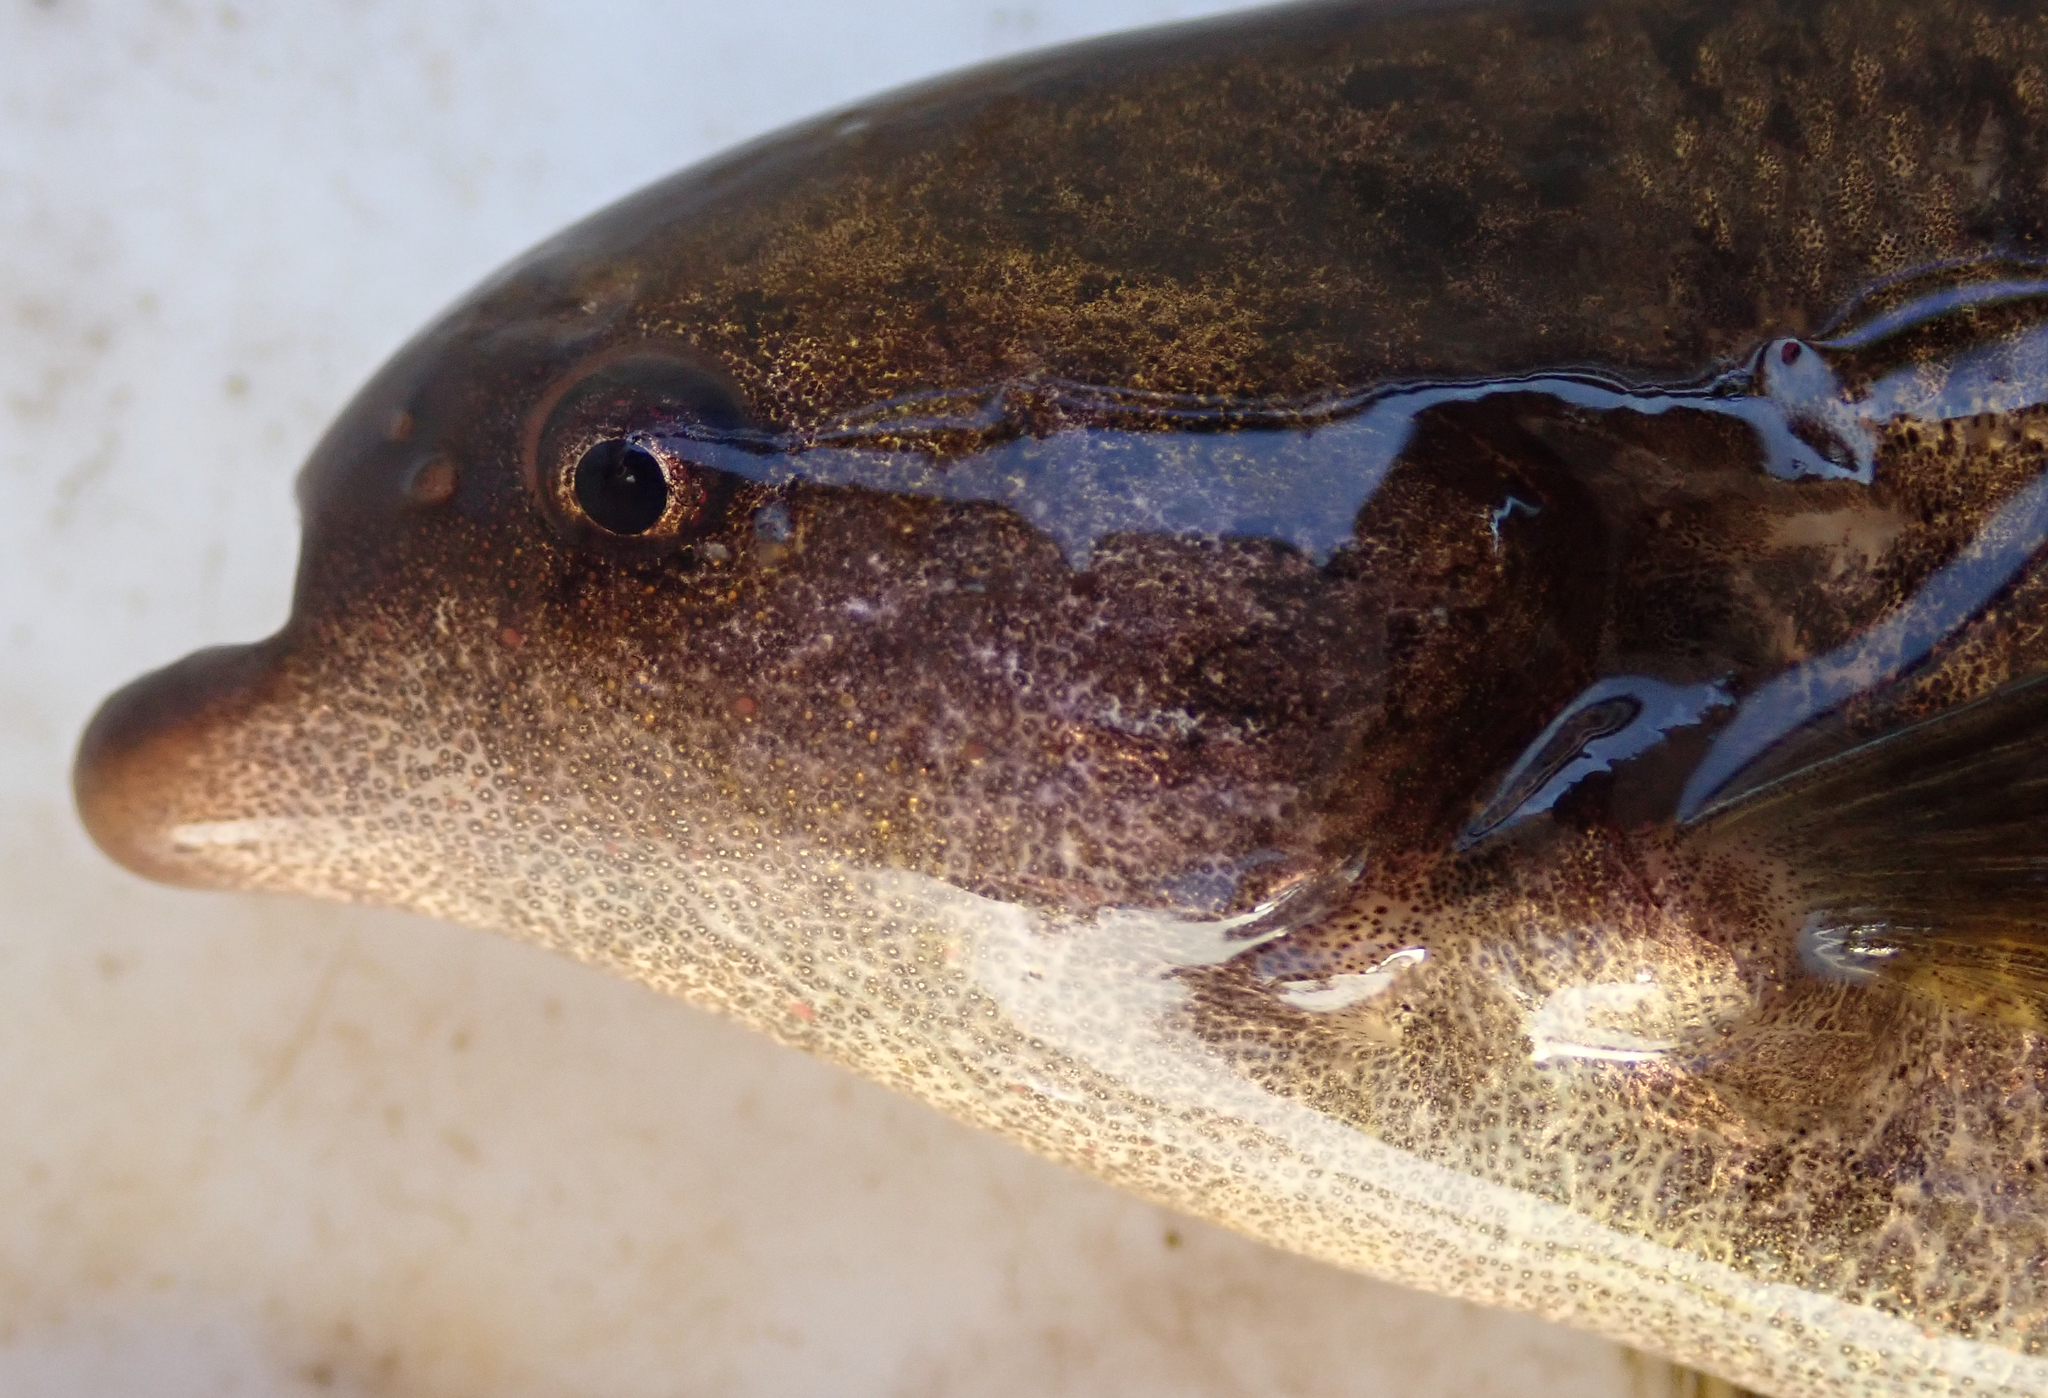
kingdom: Animalia
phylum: Chordata
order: Osteoglossiformes
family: Mormyridae
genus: Marcusenius
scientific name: Marcusenius altisambesi
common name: Bulldog
